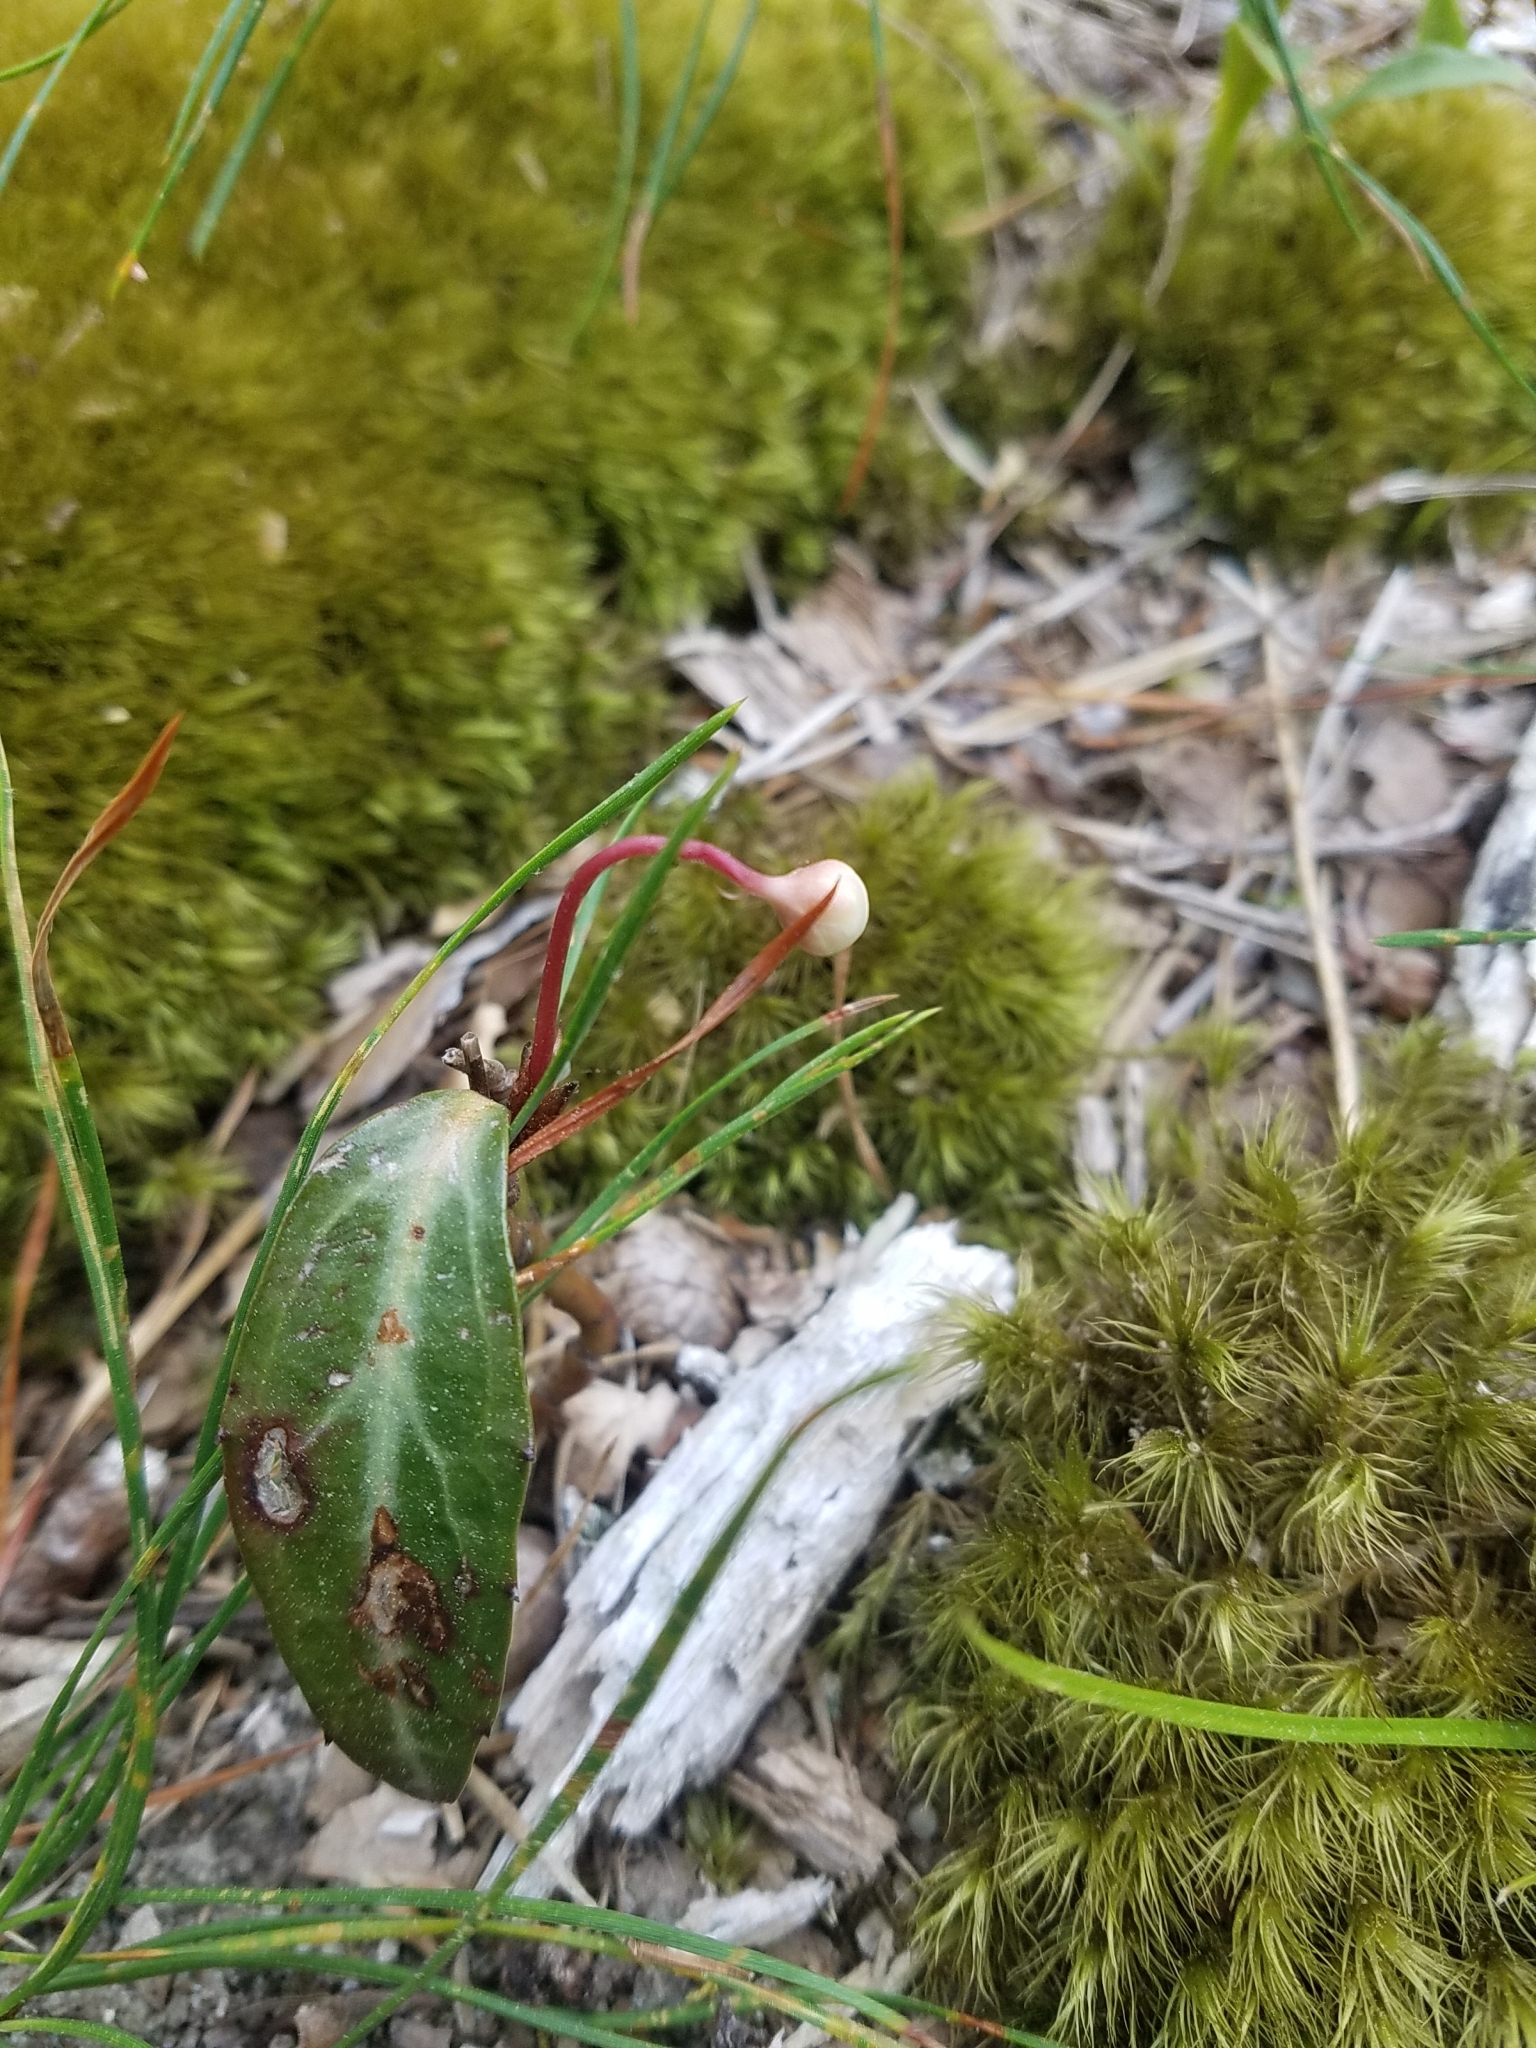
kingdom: Plantae
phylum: Tracheophyta
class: Magnoliopsida
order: Ericales
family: Ericaceae
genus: Chimaphila
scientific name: Chimaphila maculata
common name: Spotted pipsissewa
